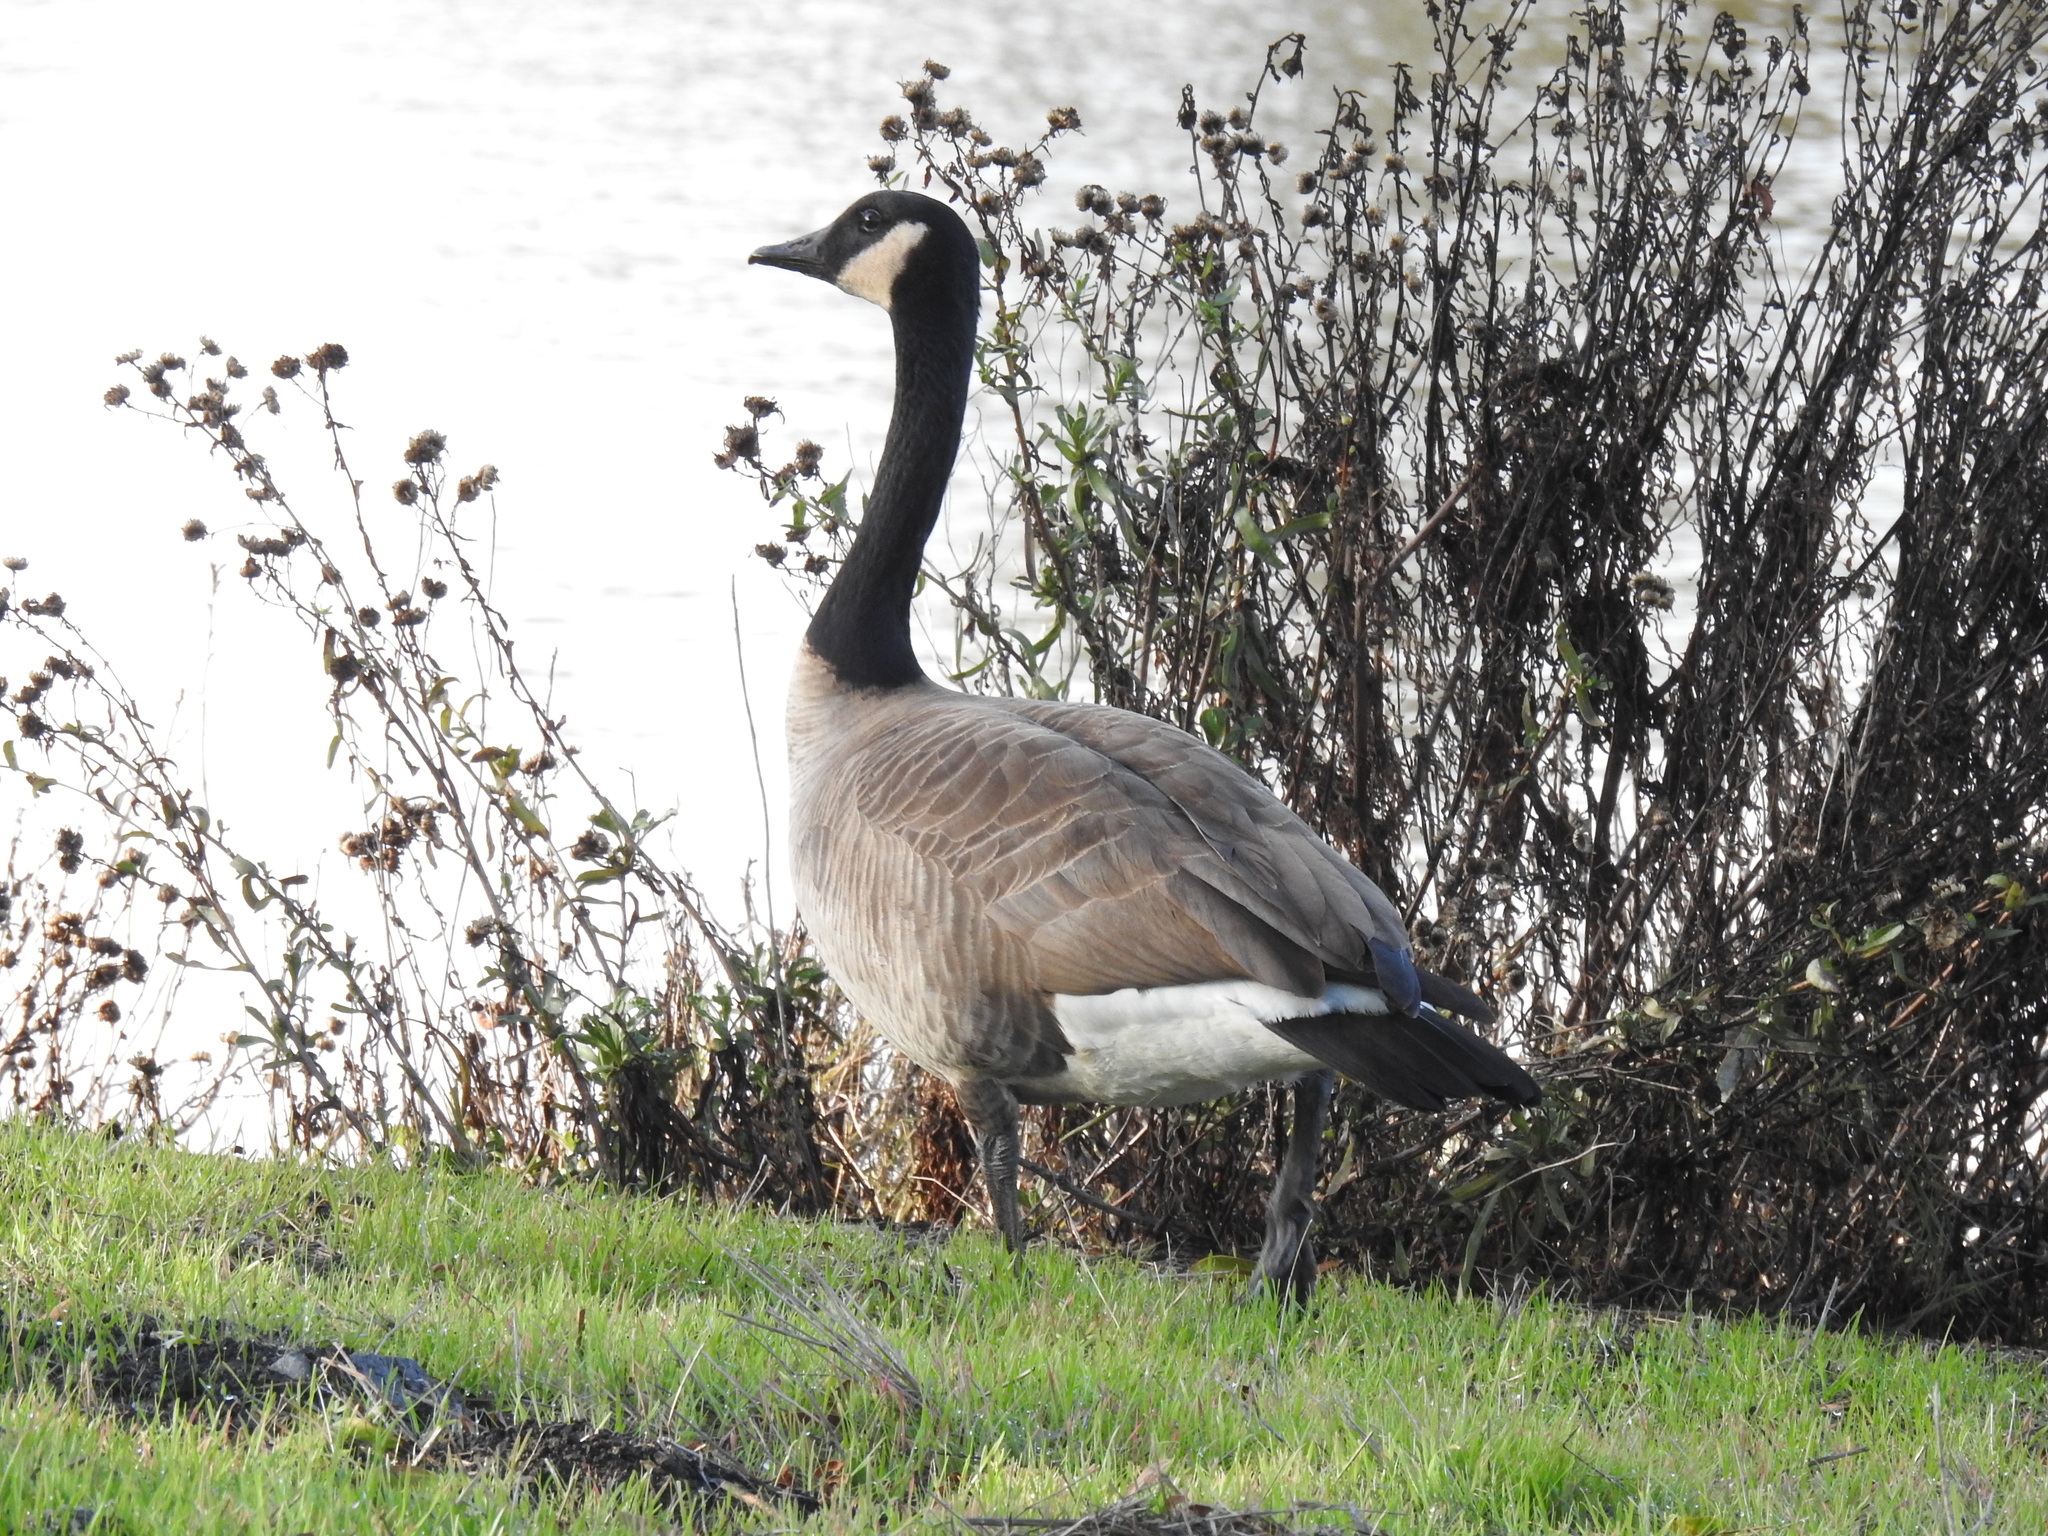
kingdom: Animalia
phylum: Chordata
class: Aves
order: Anseriformes
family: Anatidae
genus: Branta
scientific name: Branta canadensis
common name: Canada goose
